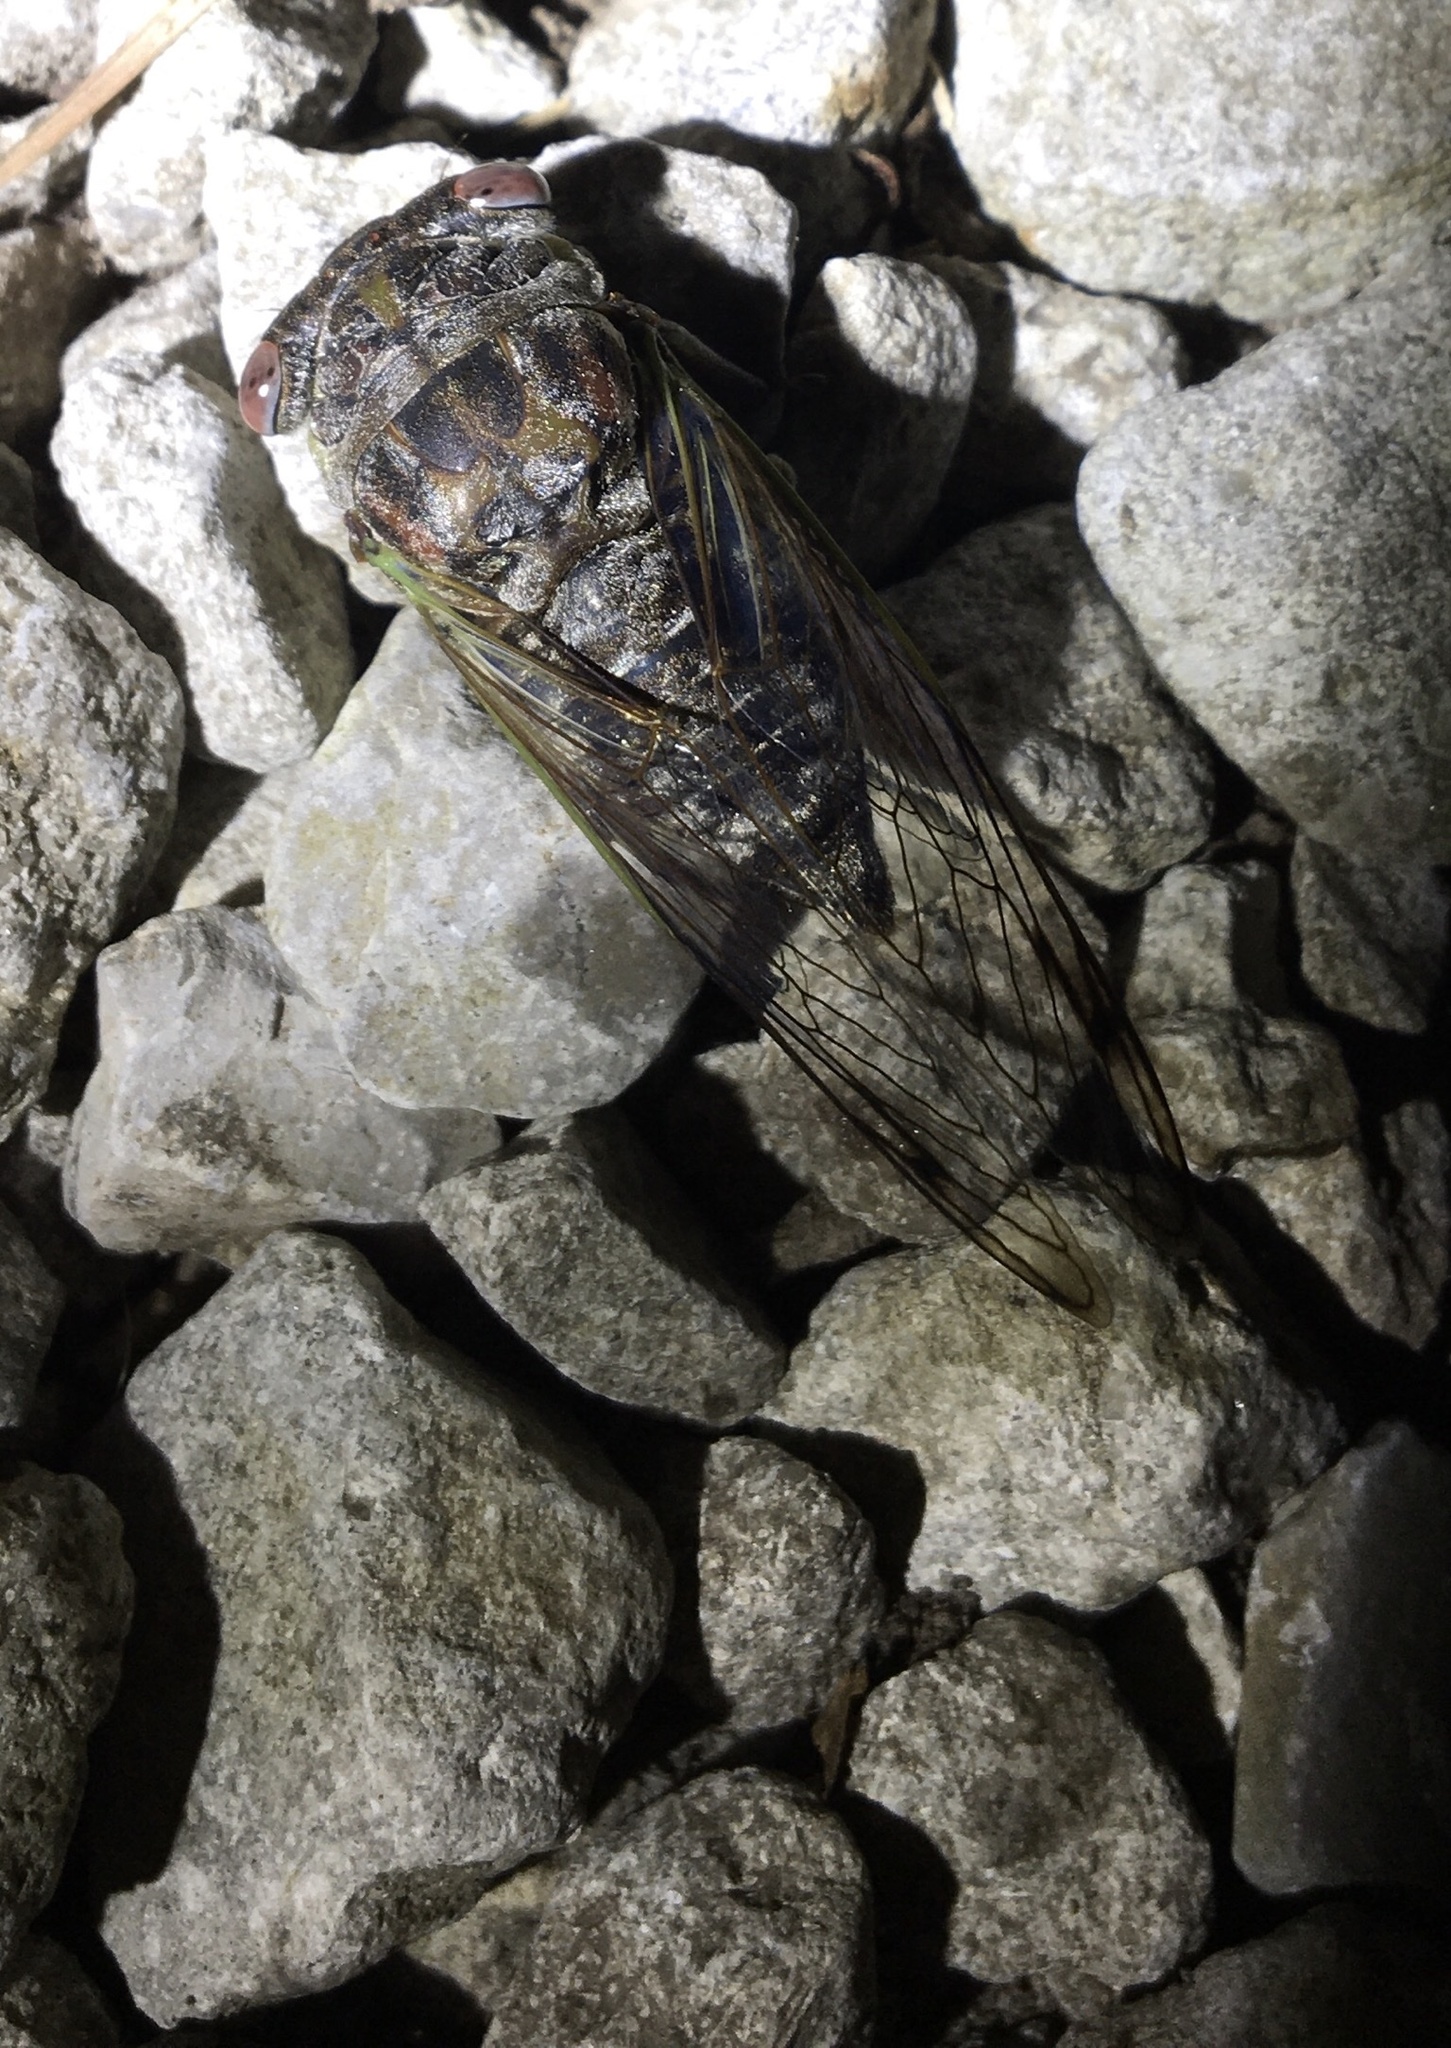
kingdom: Animalia
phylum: Arthropoda
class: Insecta
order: Hemiptera
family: Cicadidae
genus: Neotibicen
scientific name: Neotibicen davisi
